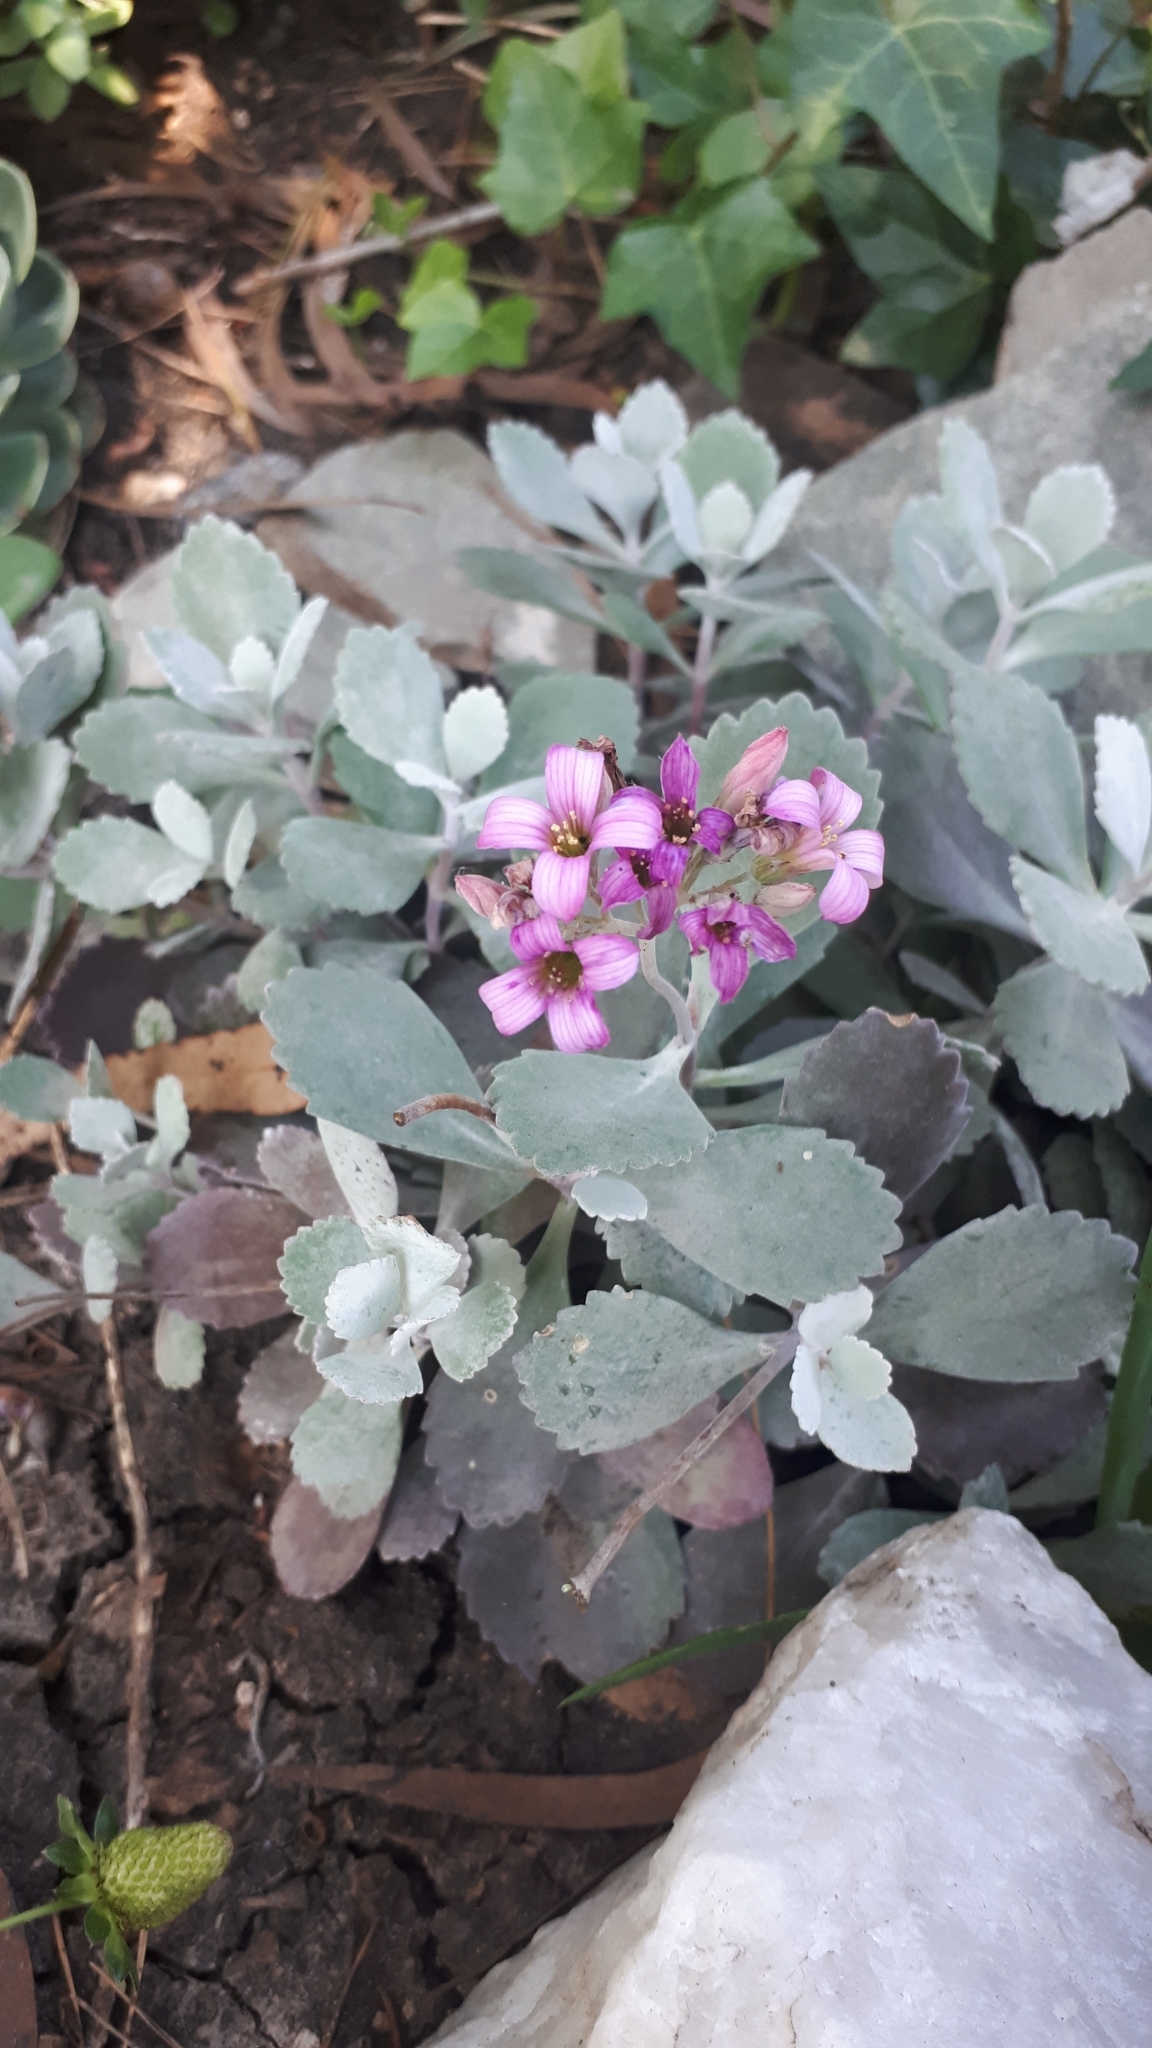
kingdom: Plantae
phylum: Tracheophyta
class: Magnoliopsida
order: Saxifragales
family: Crassulaceae
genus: Kalanchoe
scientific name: Kalanchoe pumila
